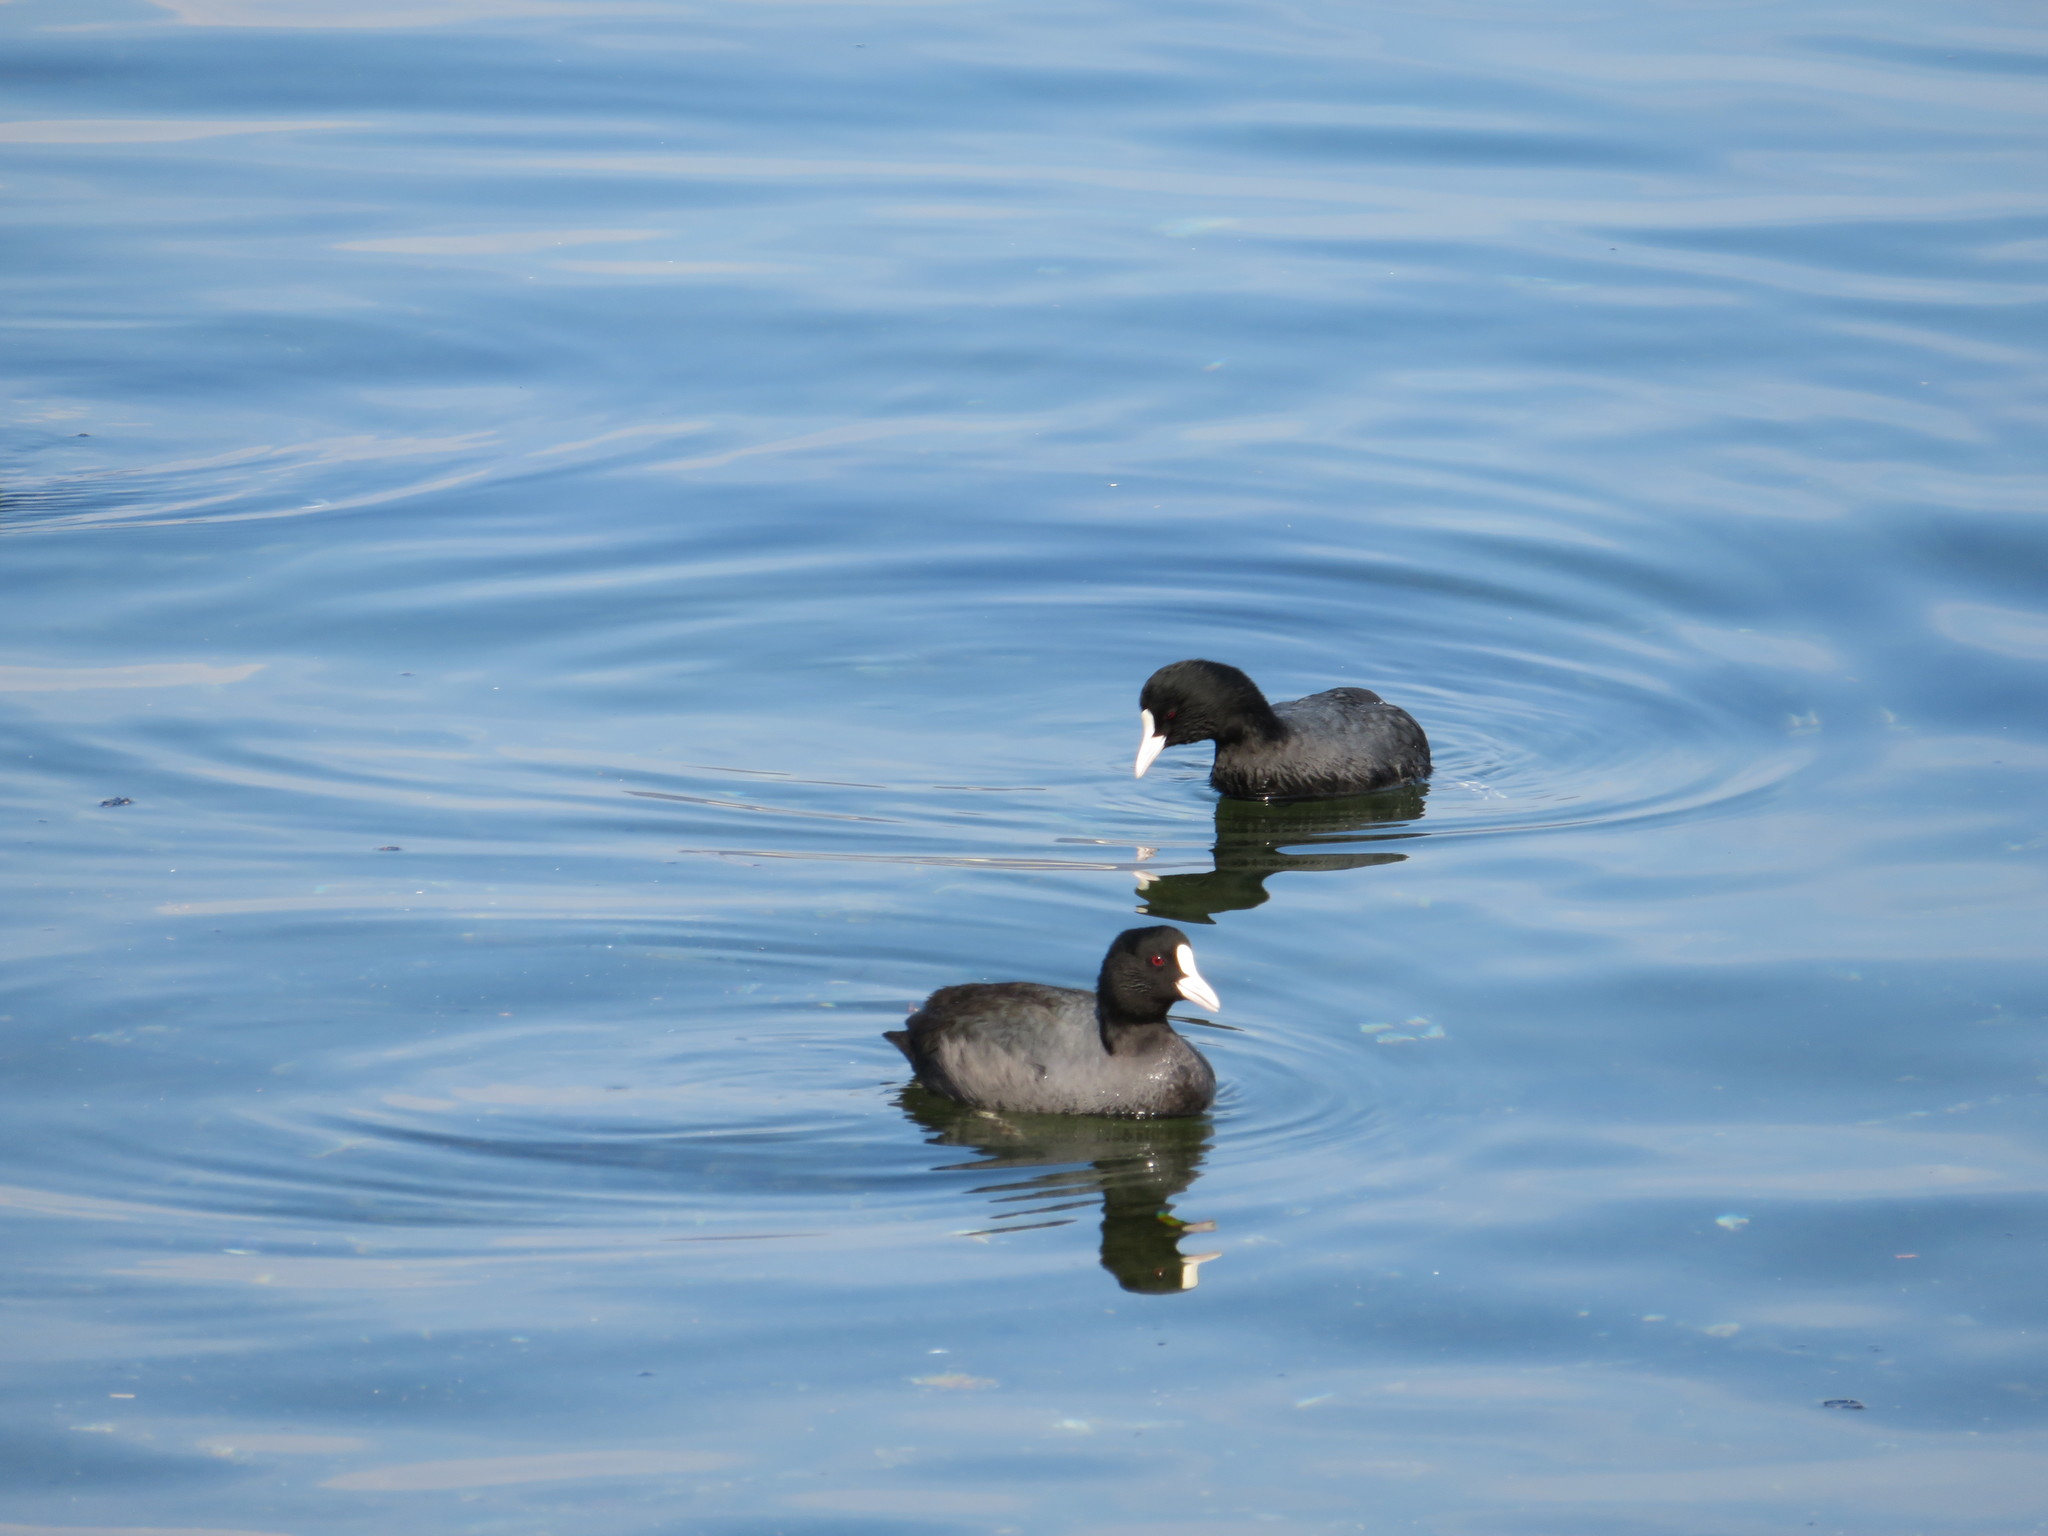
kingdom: Animalia
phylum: Chordata
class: Aves
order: Gruiformes
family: Rallidae
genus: Fulica
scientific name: Fulica atra
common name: Eurasian coot
